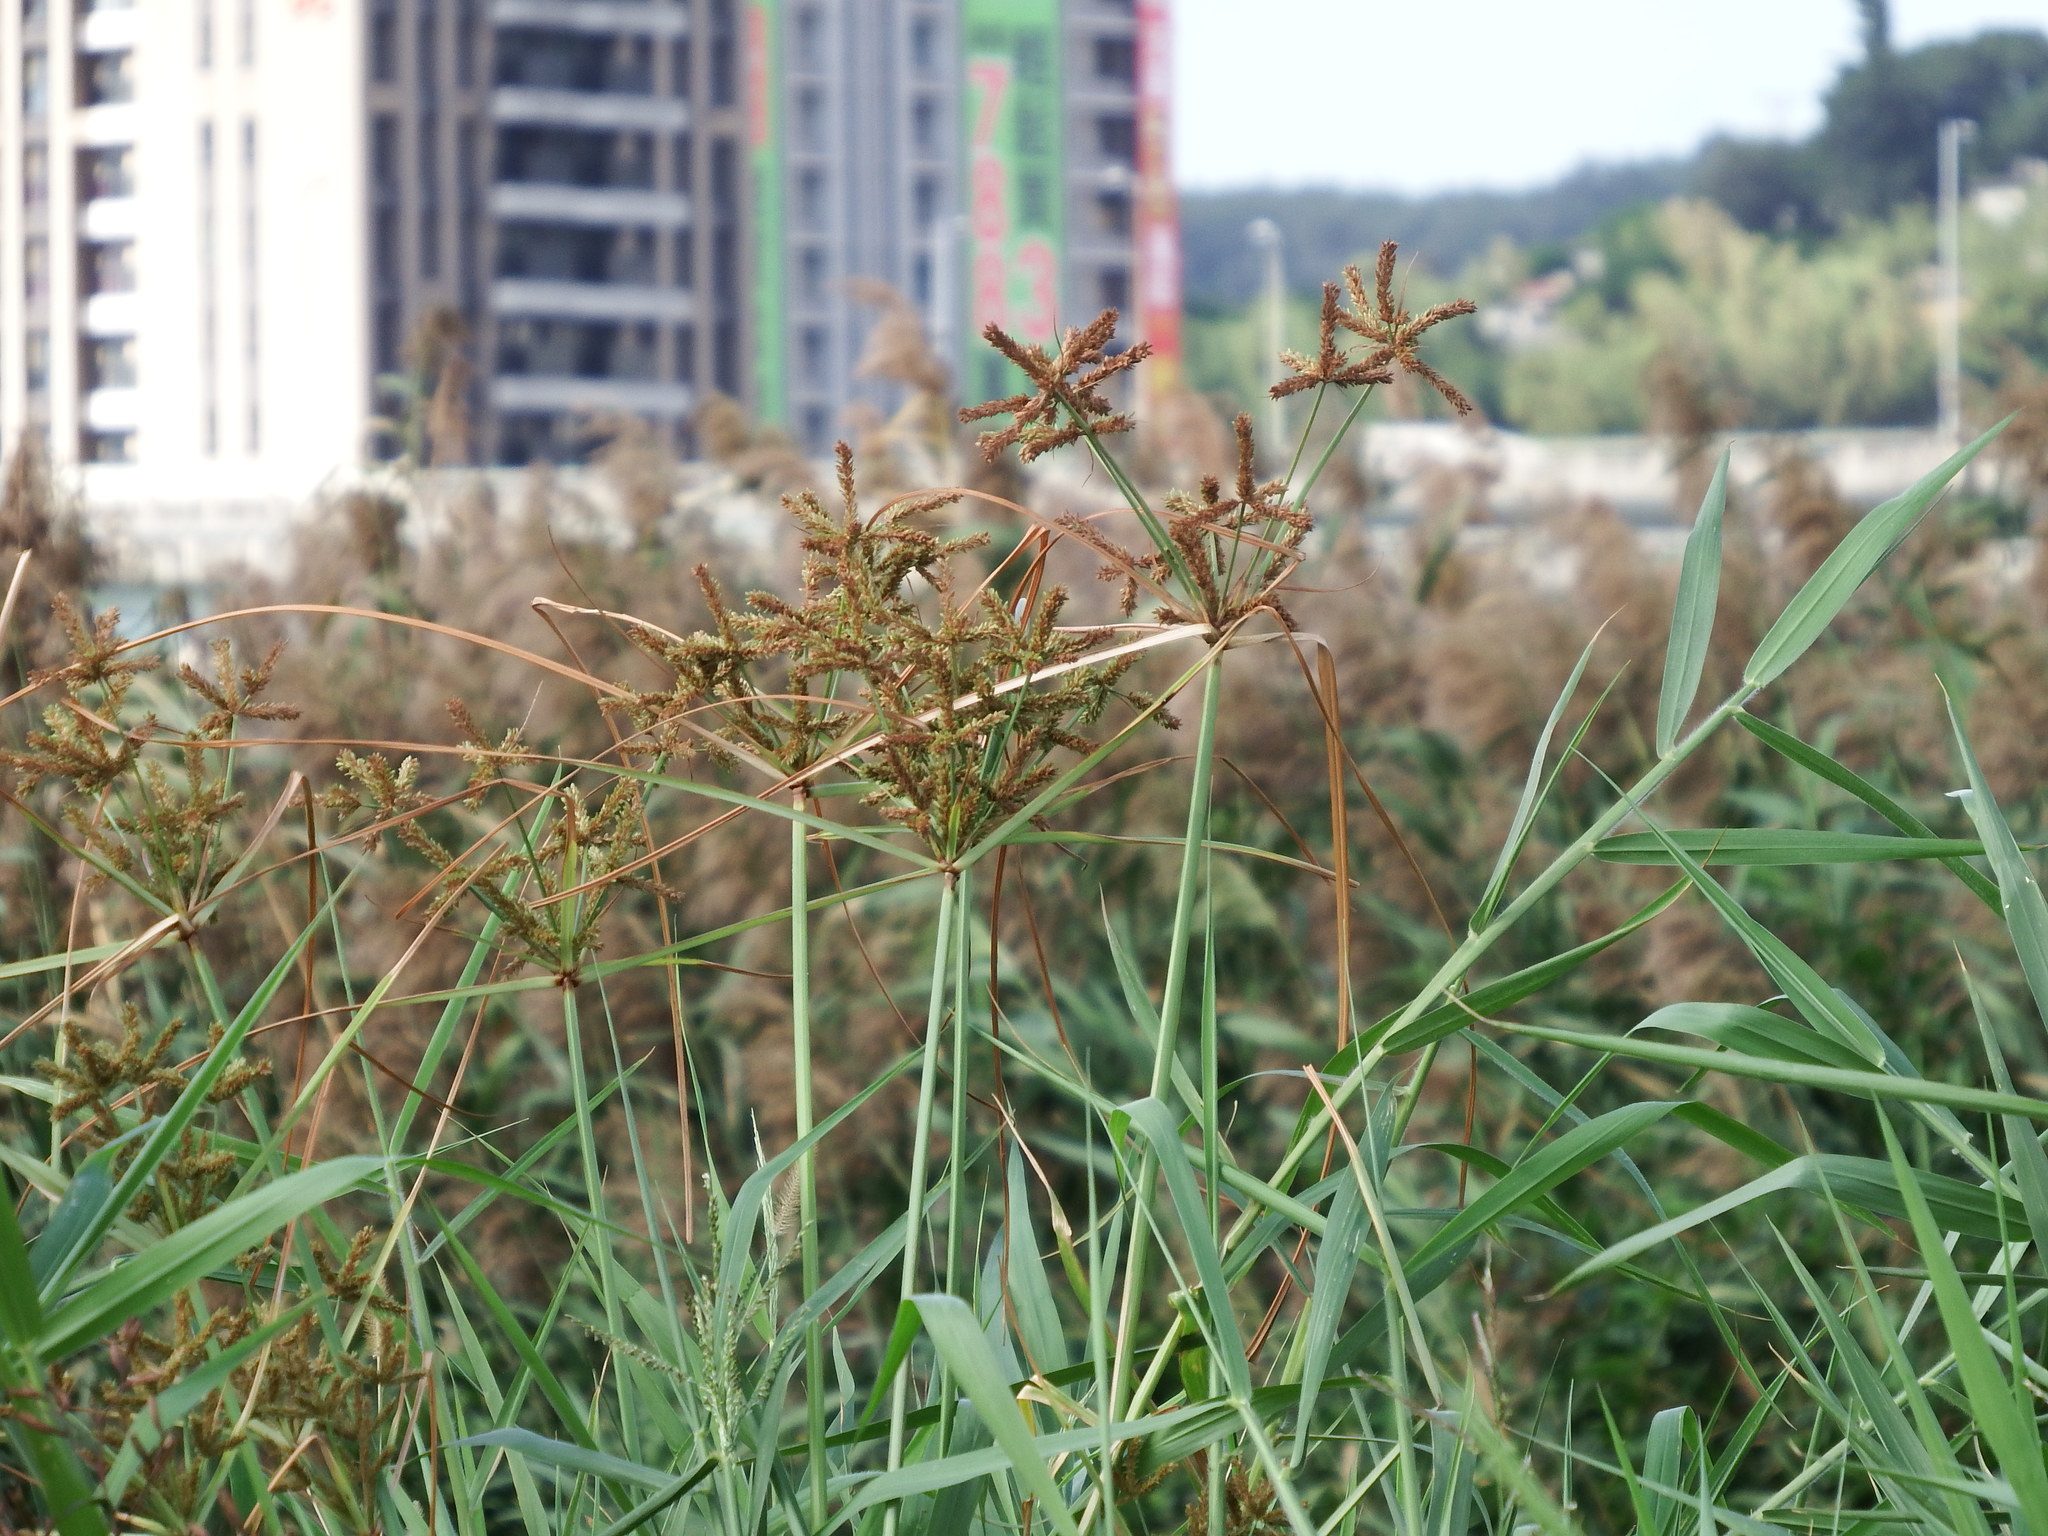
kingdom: Plantae
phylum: Tracheophyta
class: Liliopsida
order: Poales
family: Cyperaceae
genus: Cyperus
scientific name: Cyperus imbricatus
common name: Shingle flatsedge
